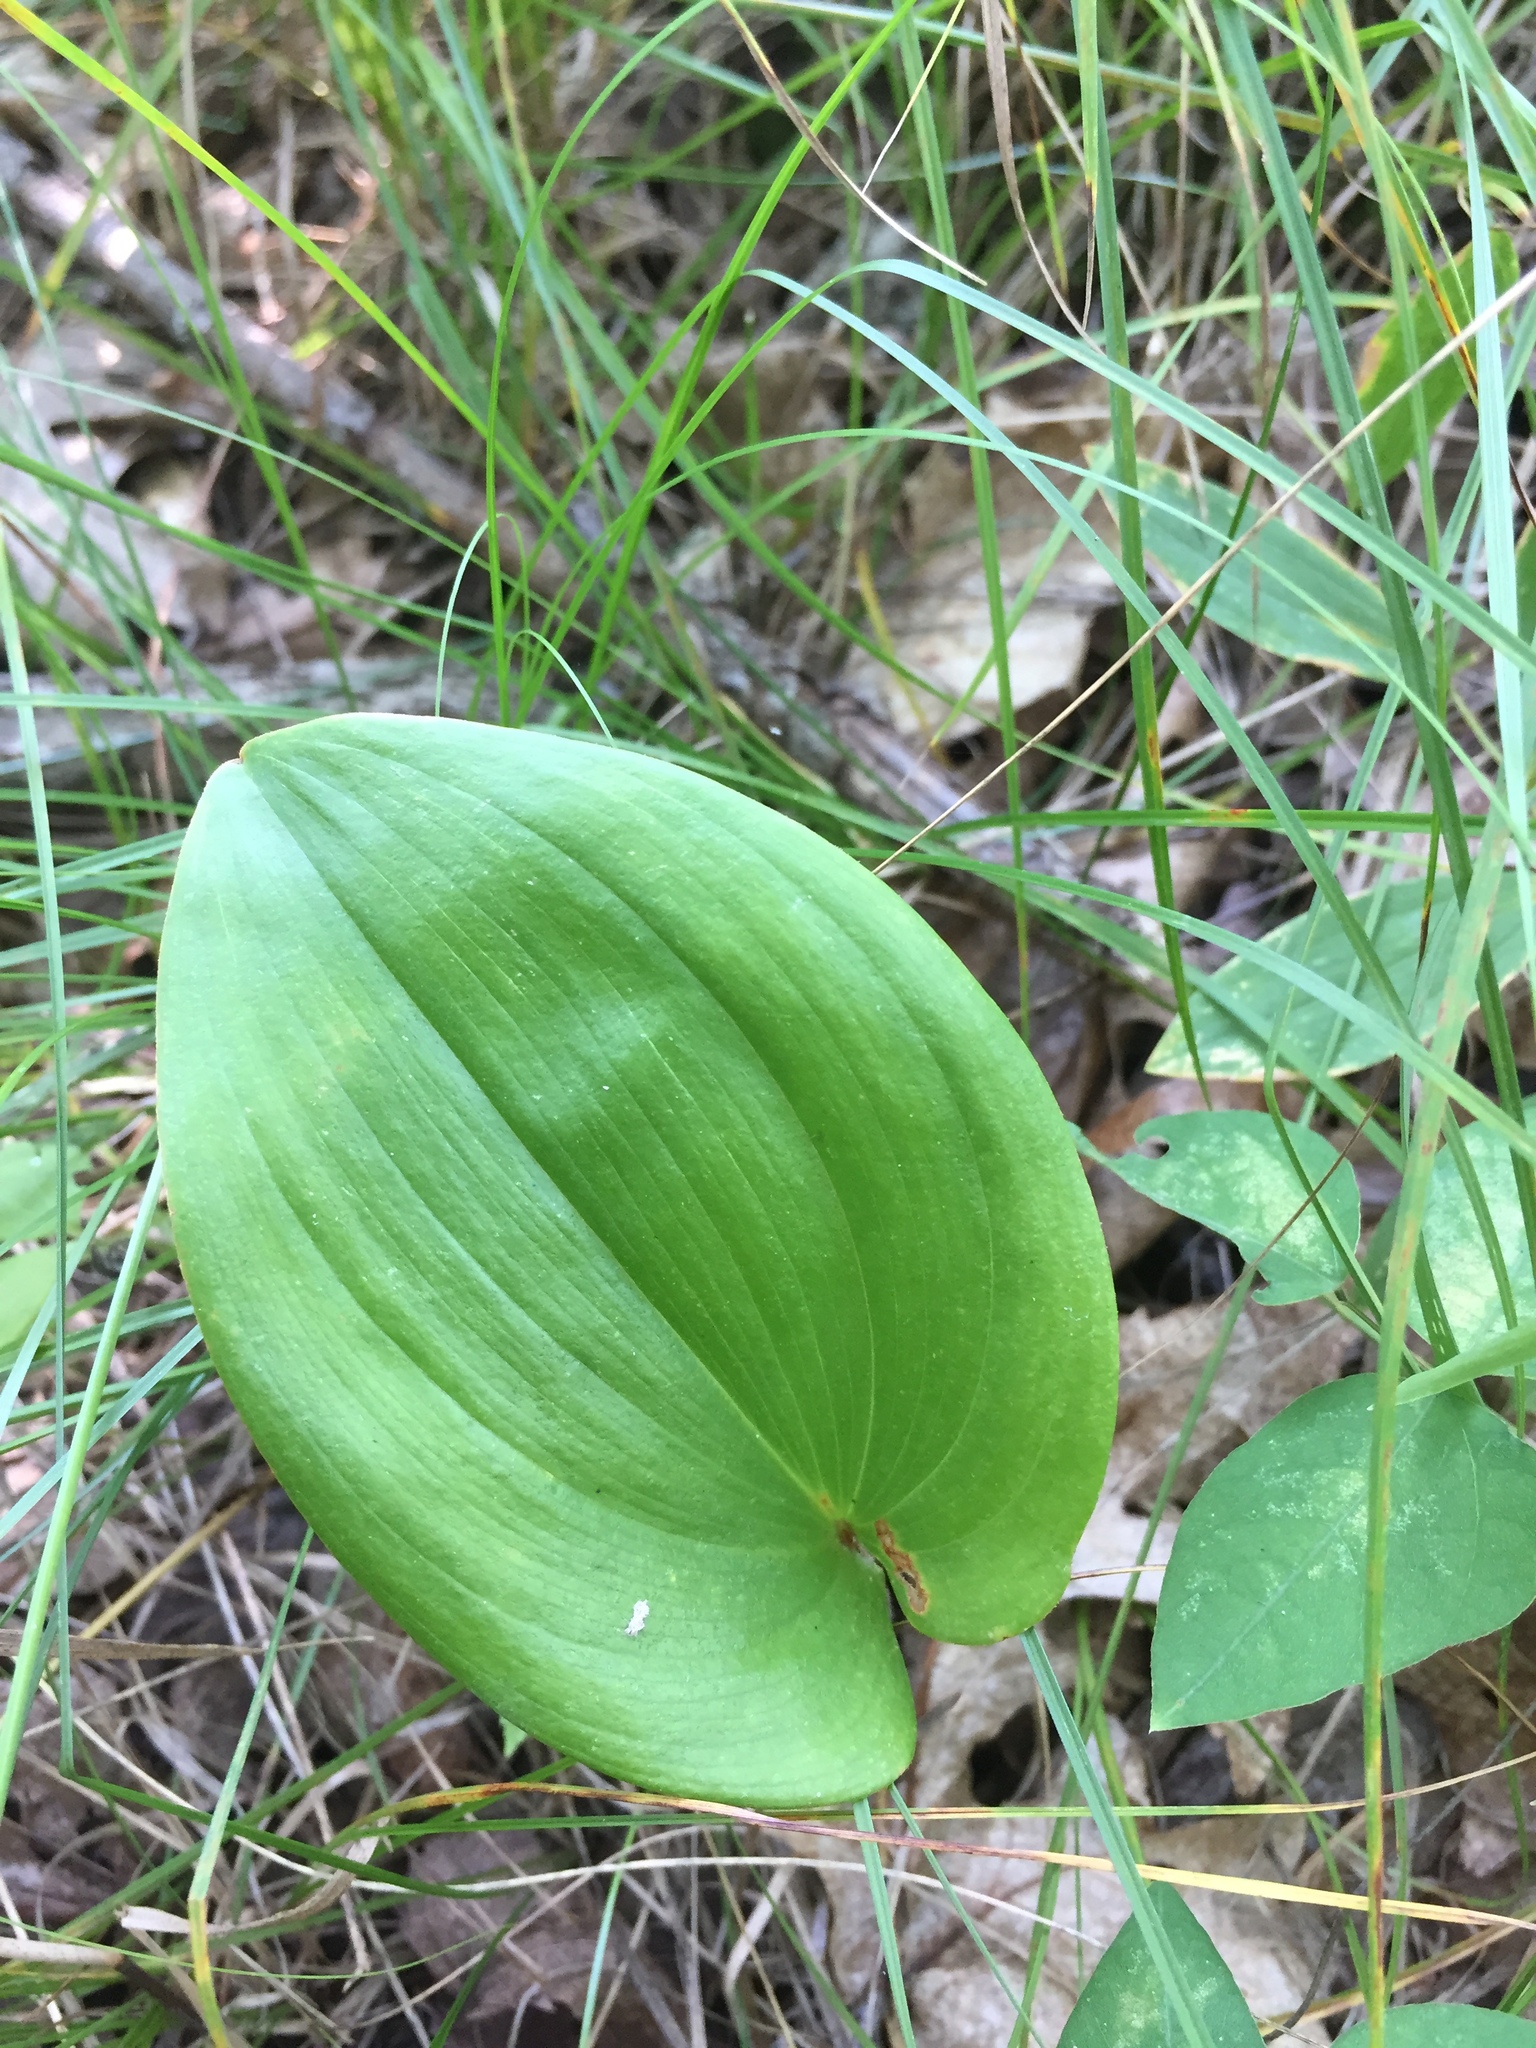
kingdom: Plantae
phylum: Tracheophyta
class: Liliopsida
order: Asparagales
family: Asparagaceae
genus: Maianthemum
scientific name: Maianthemum canadense
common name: False lily-of-the-valley
